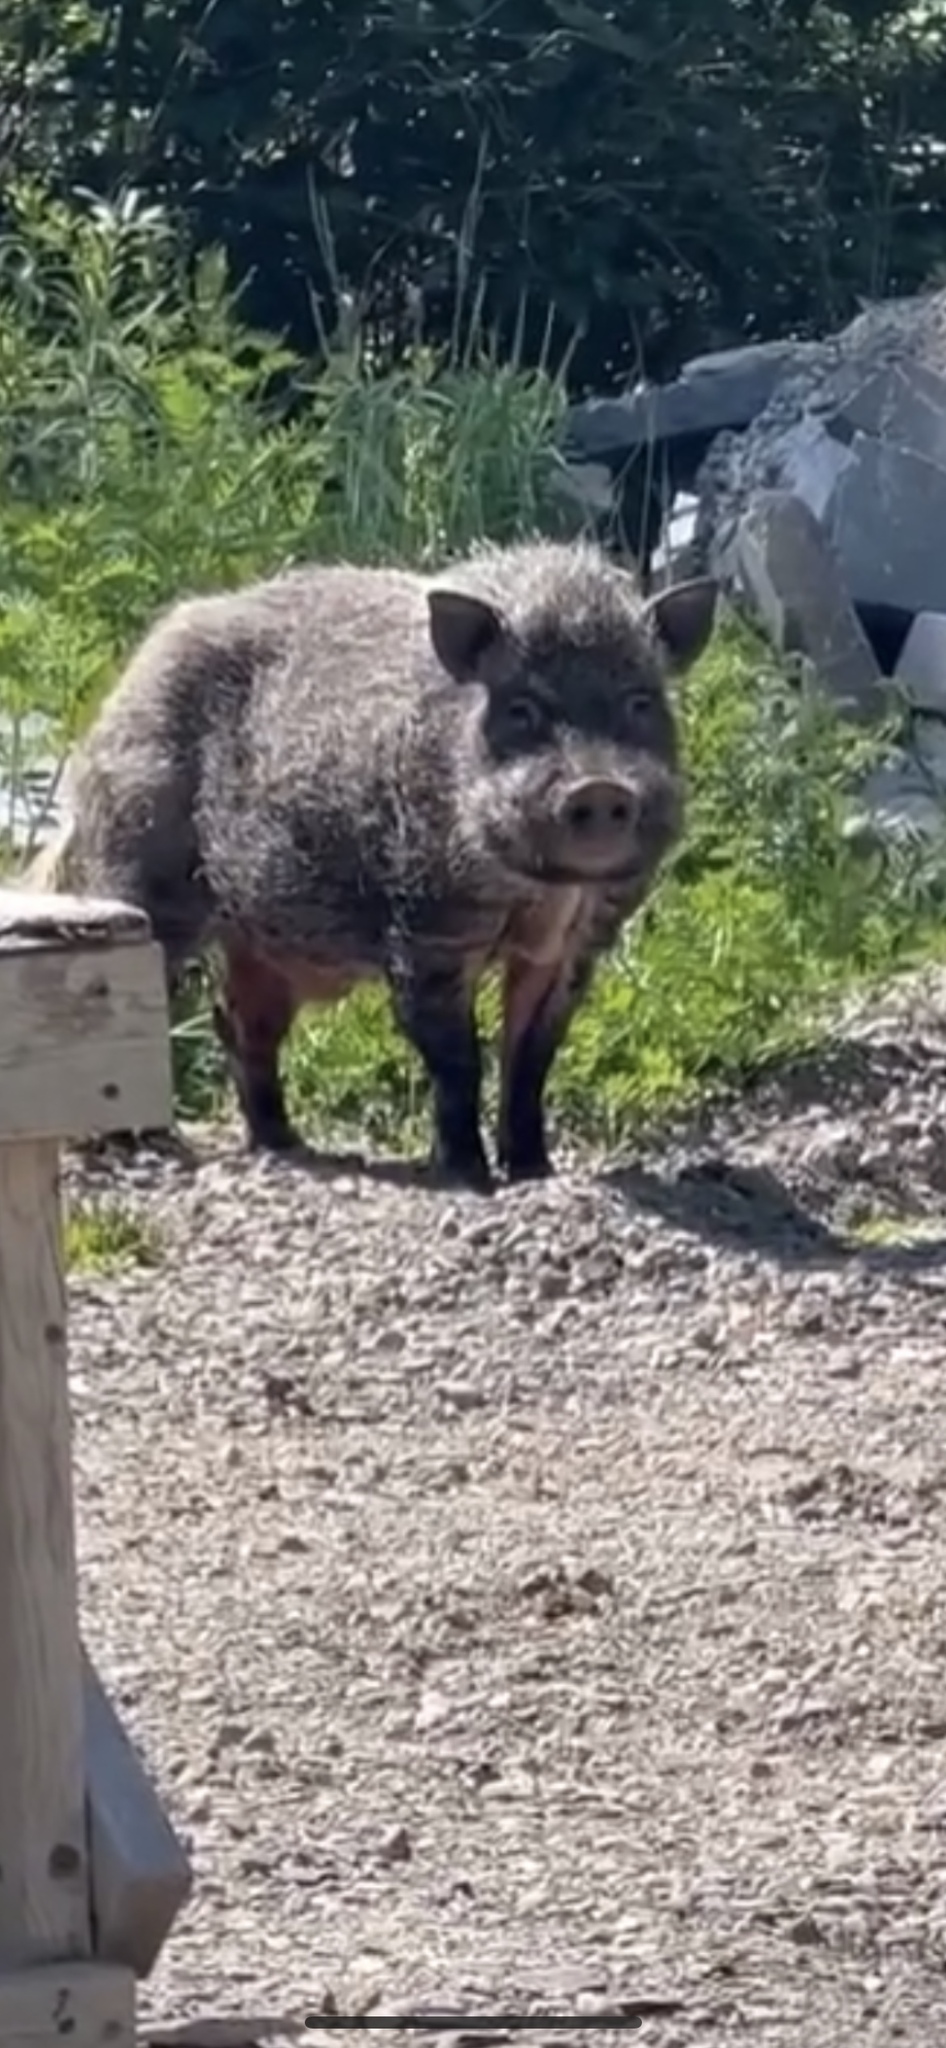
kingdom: Animalia
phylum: Chordata
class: Mammalia
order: Artiodactyla
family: Suidae
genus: Sus
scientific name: Sus scrofa
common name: Wild boar
